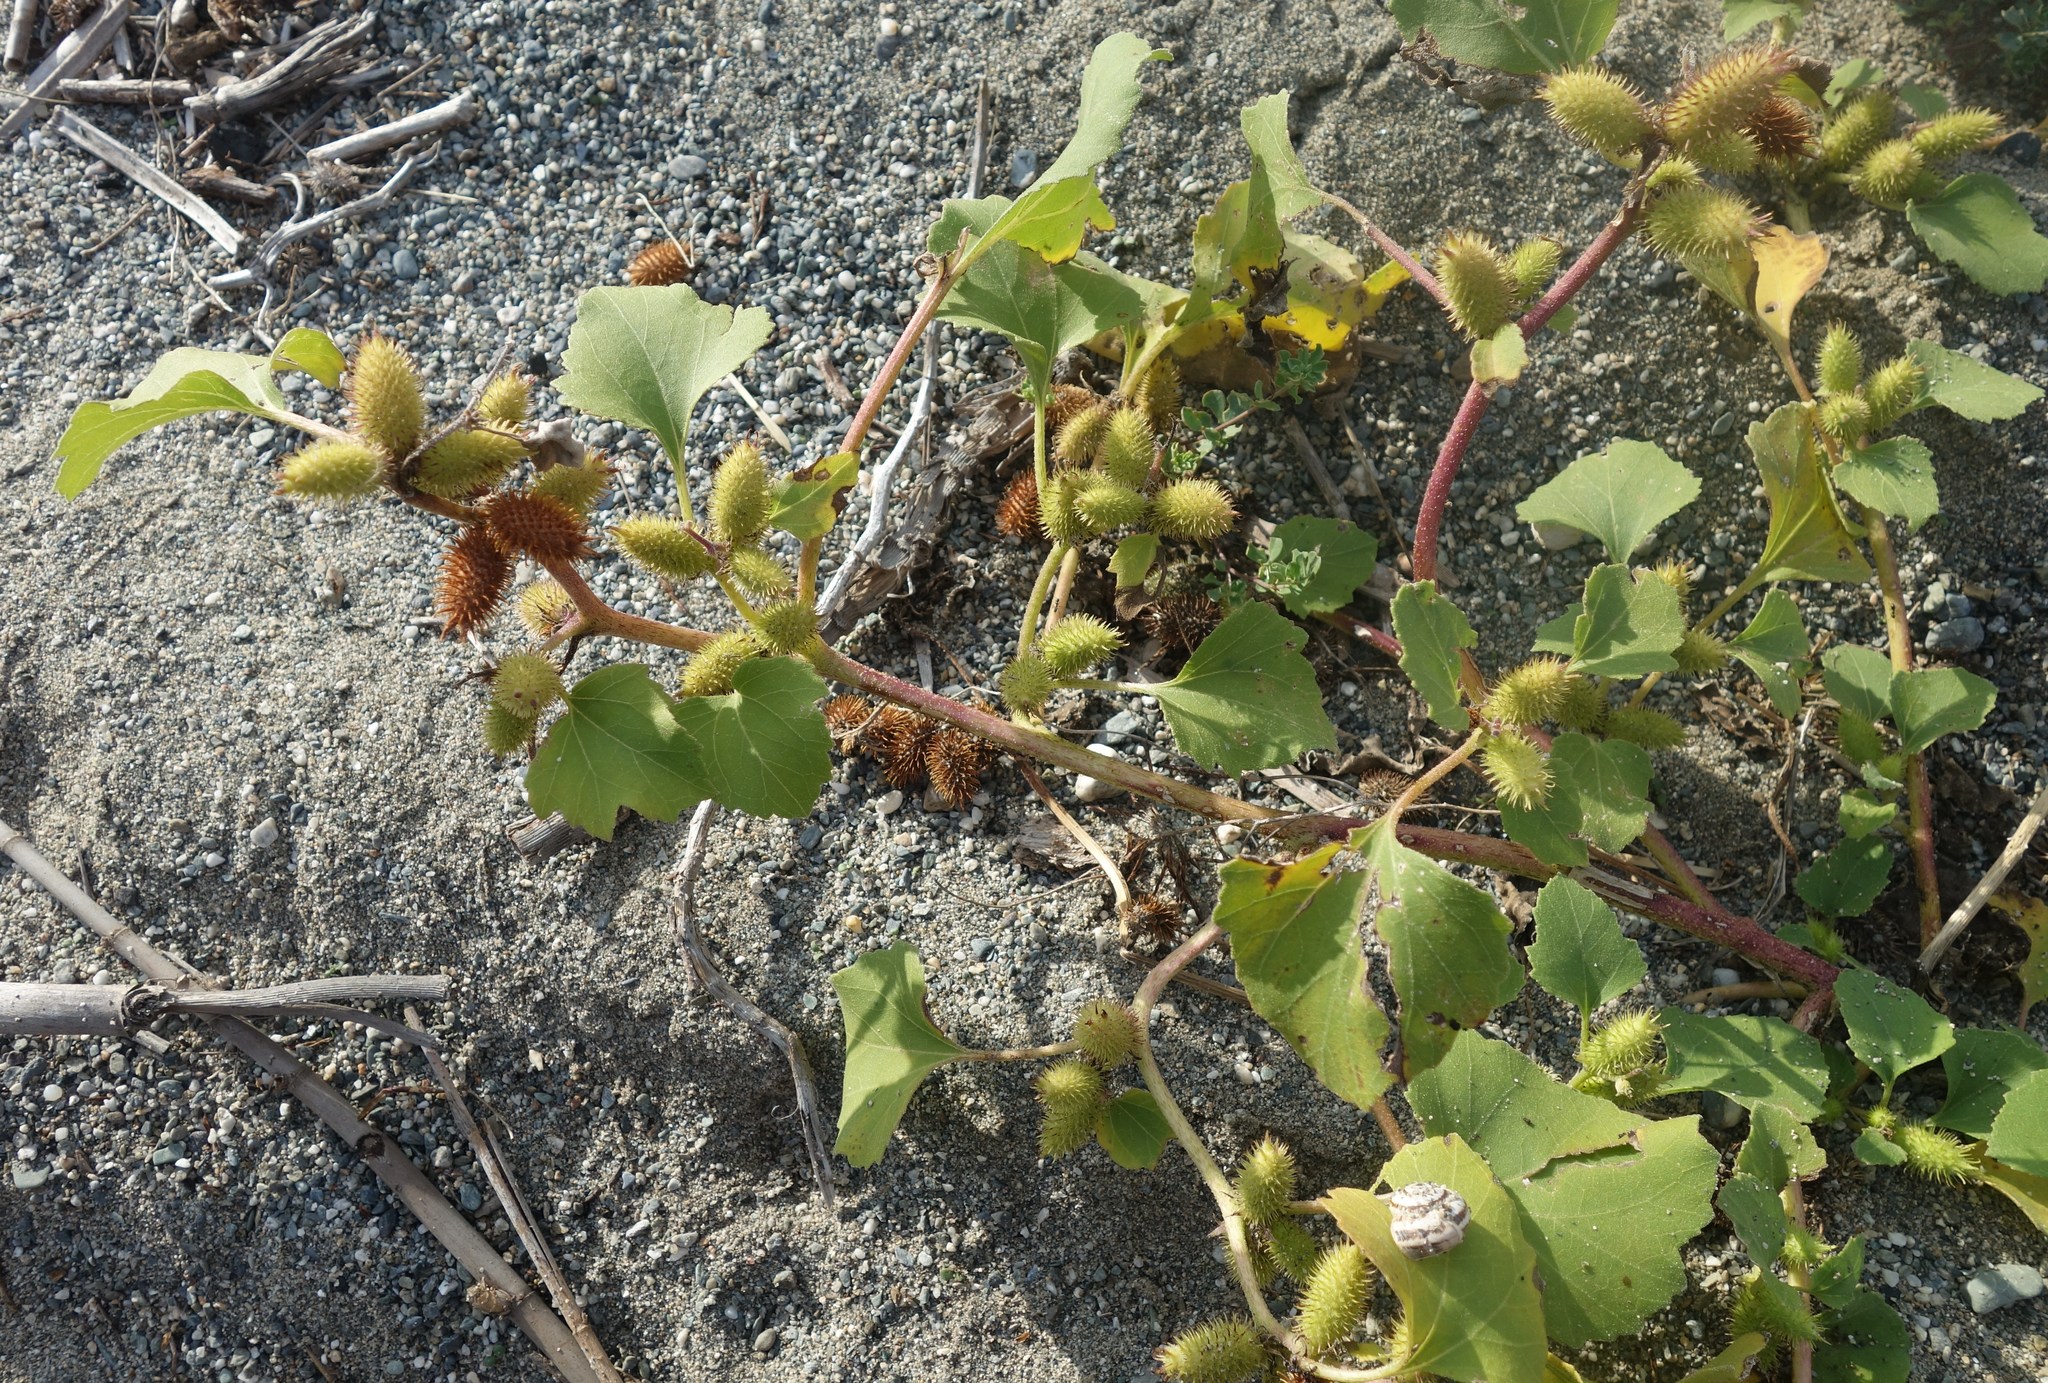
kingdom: Plantae
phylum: Tracheophyta
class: Magnoliopsida
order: Asterales
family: Asteraceae
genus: Xanthium
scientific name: Xanthium orientale
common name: Californian burr
